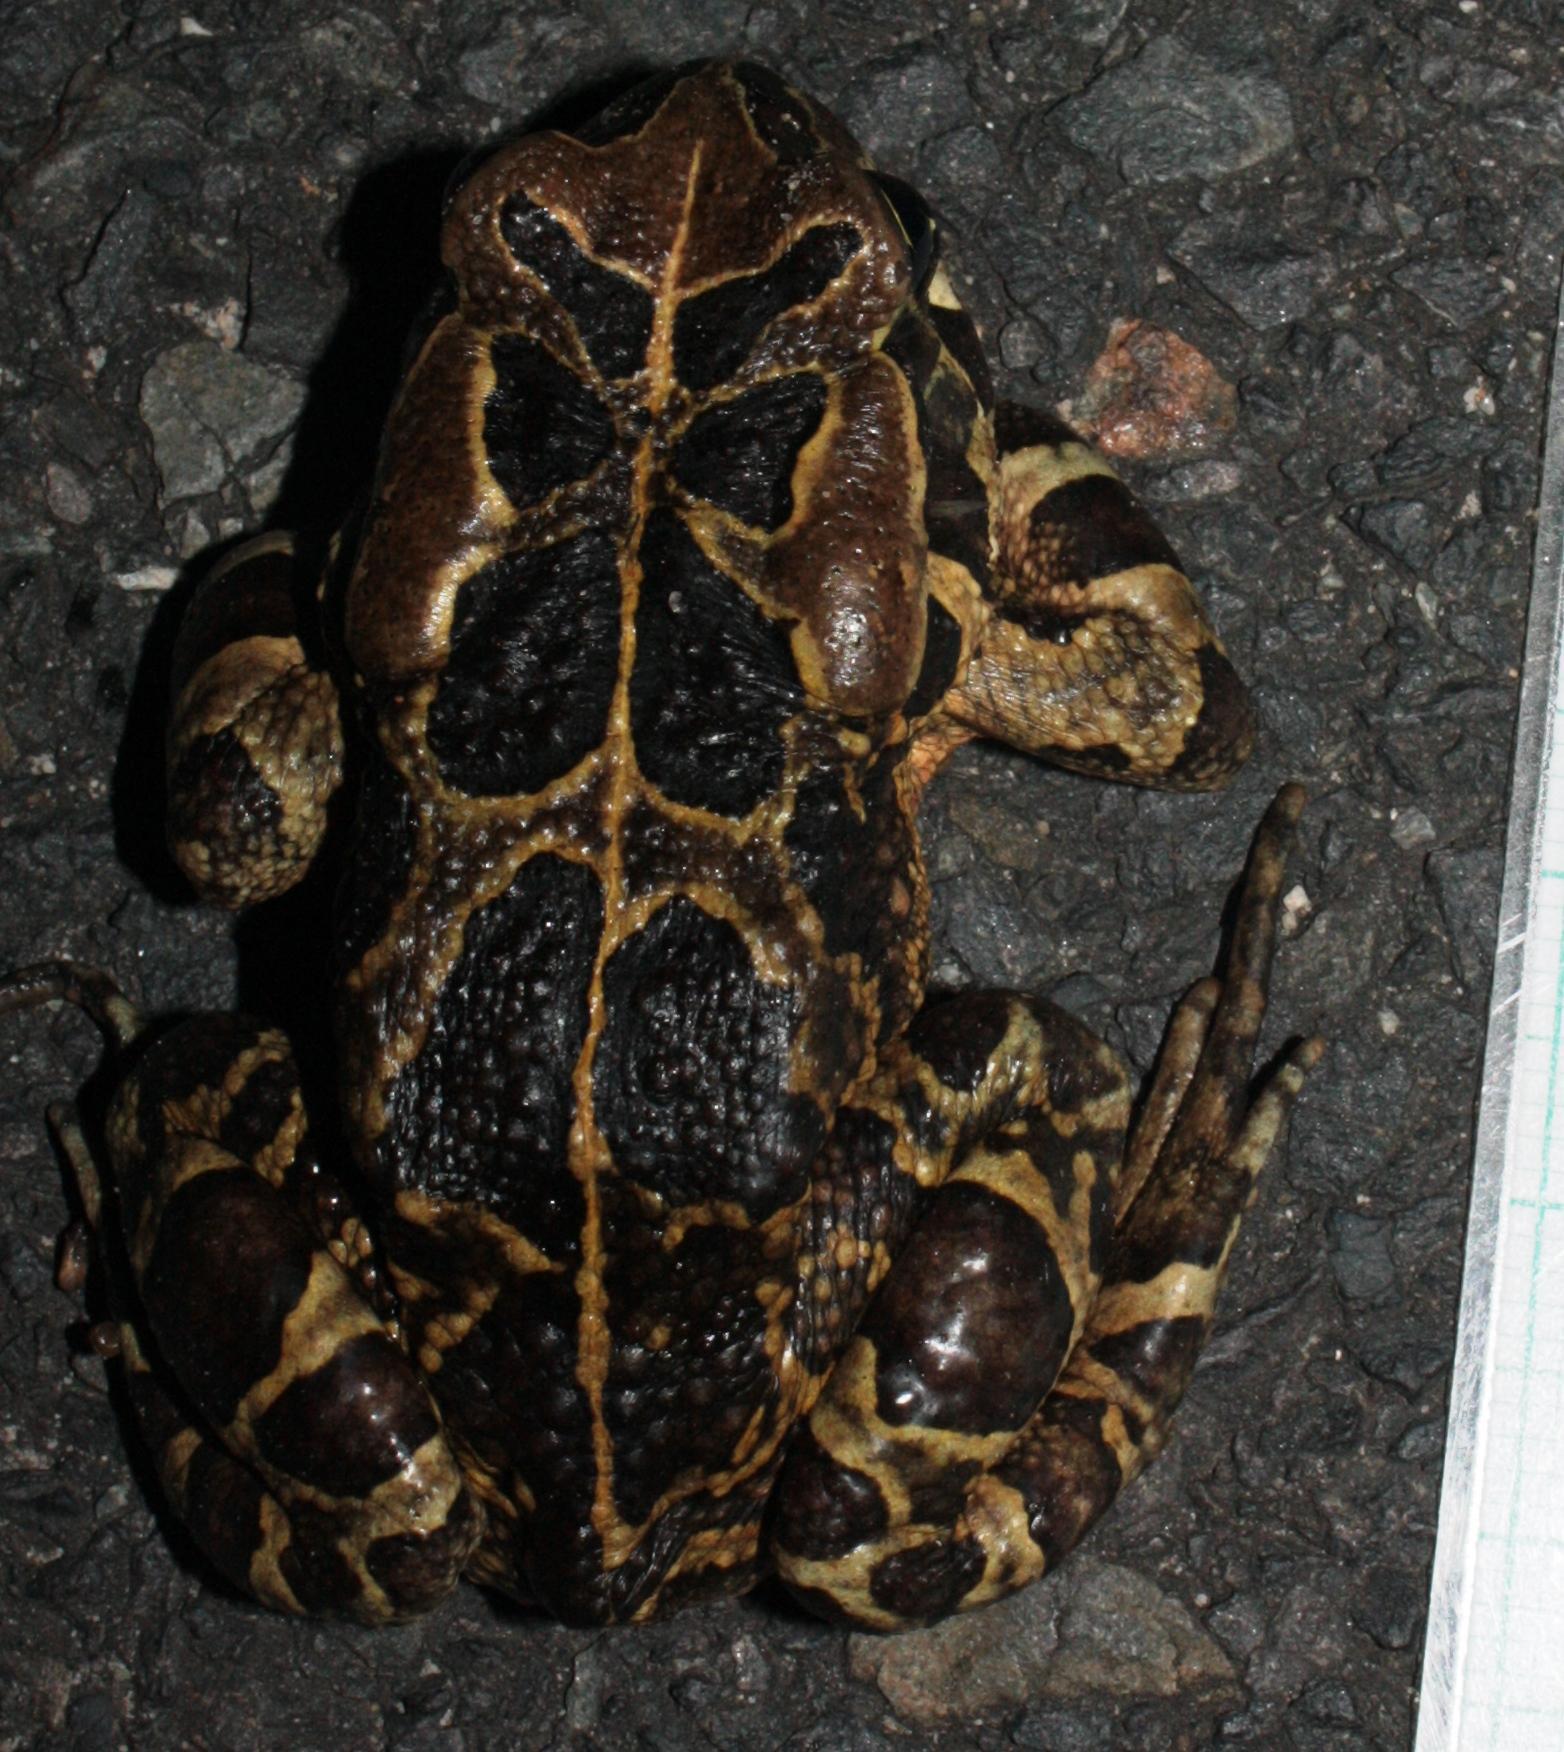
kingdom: Animalia
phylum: Chordata
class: Amphibia
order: Anura
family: Bufonidae
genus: Sclerophrys
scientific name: Sclerophrys pantherina
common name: Panther toad
